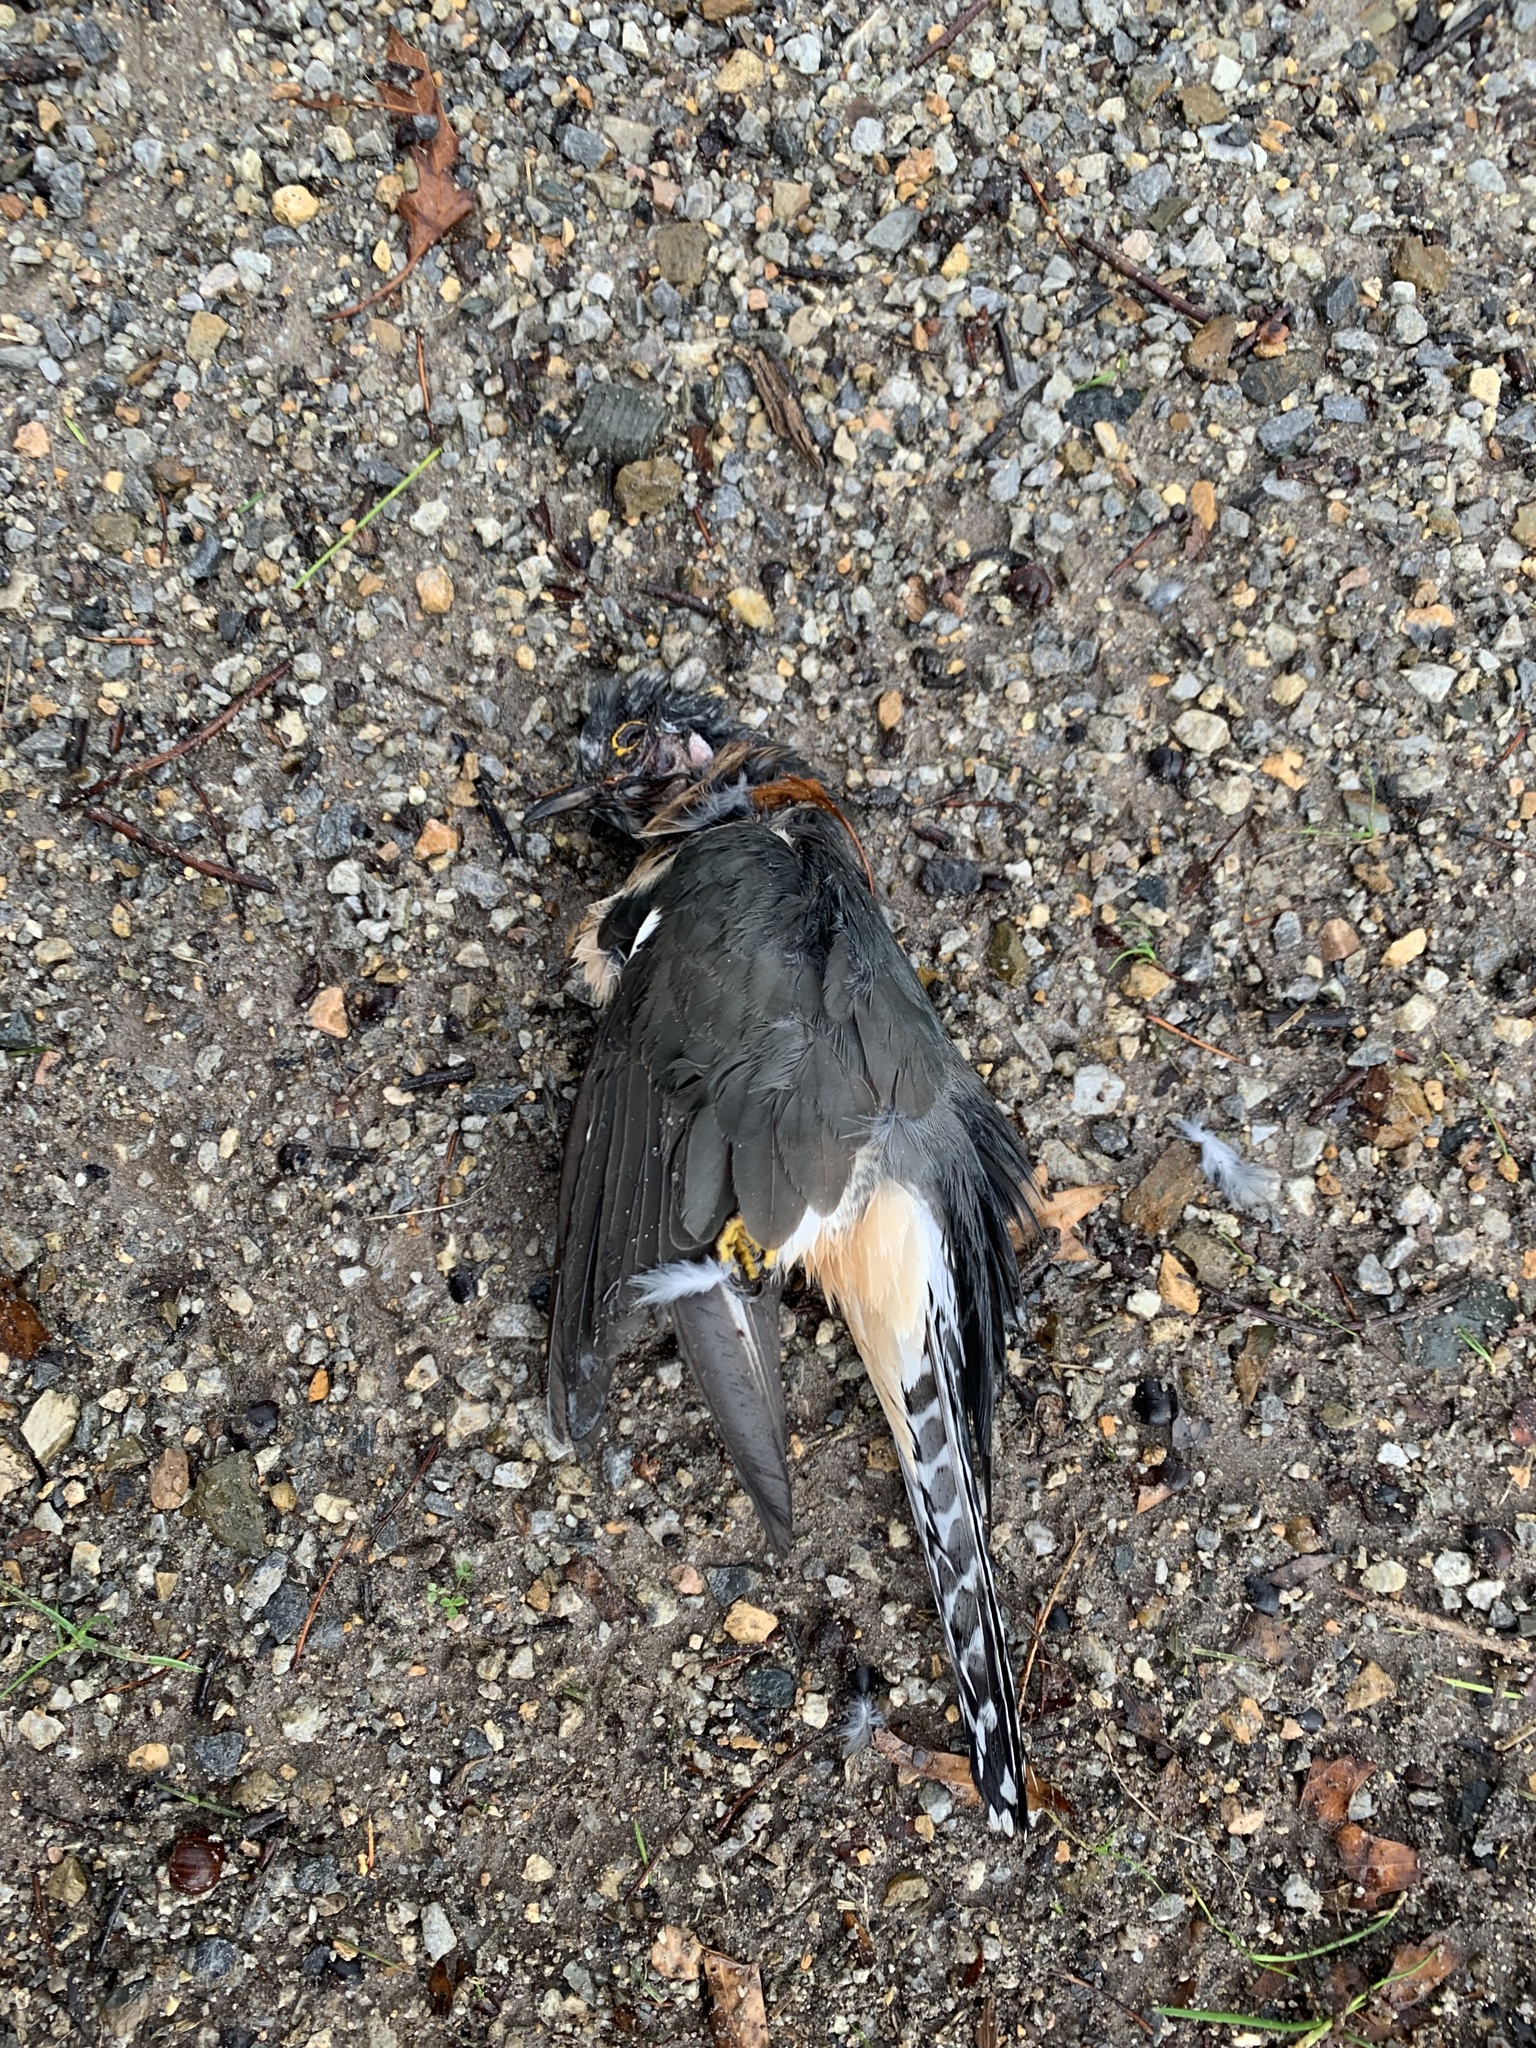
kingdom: Animalia
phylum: Chordata
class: Aves
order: Cuculiformes
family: Cuculidae
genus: Cacomantis
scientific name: Cacomantis flabelliformis
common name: Fan-tailed cuckoo
